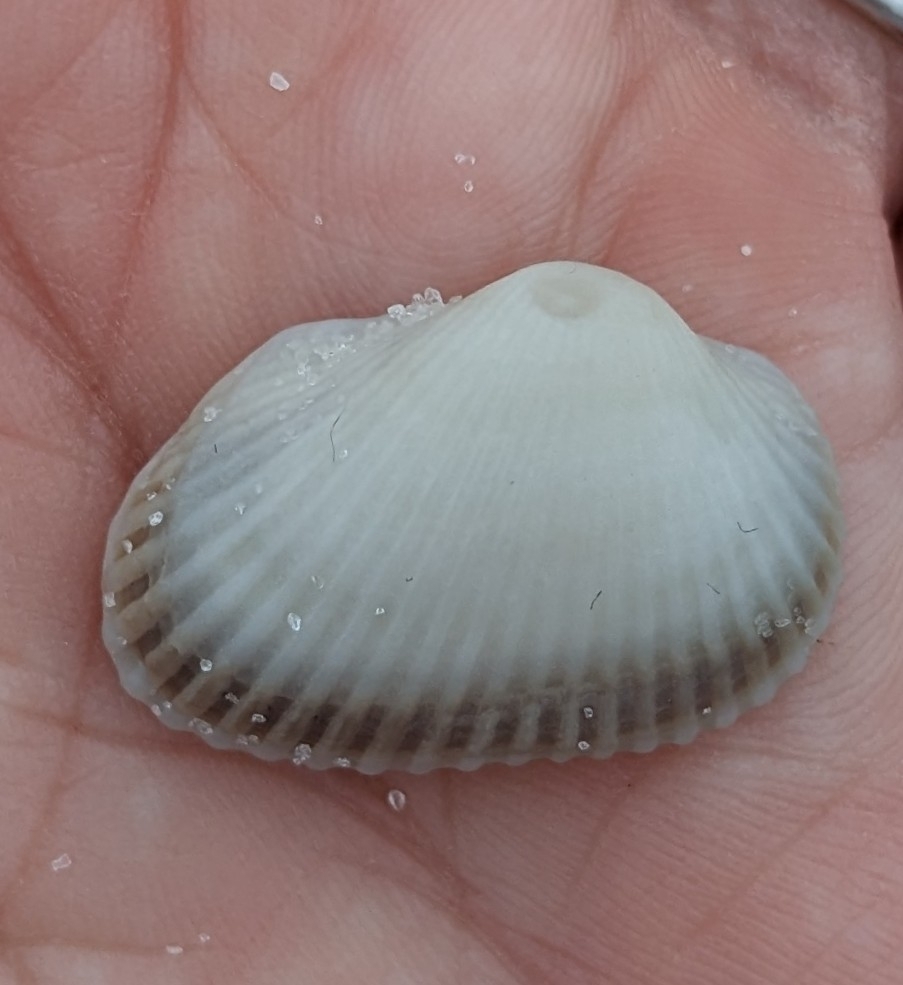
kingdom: Animalia
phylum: Mollusca
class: Bivalvia
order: Arcida
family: Arcidae
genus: Anadara
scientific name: Anadara transversa
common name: Transverse ark
